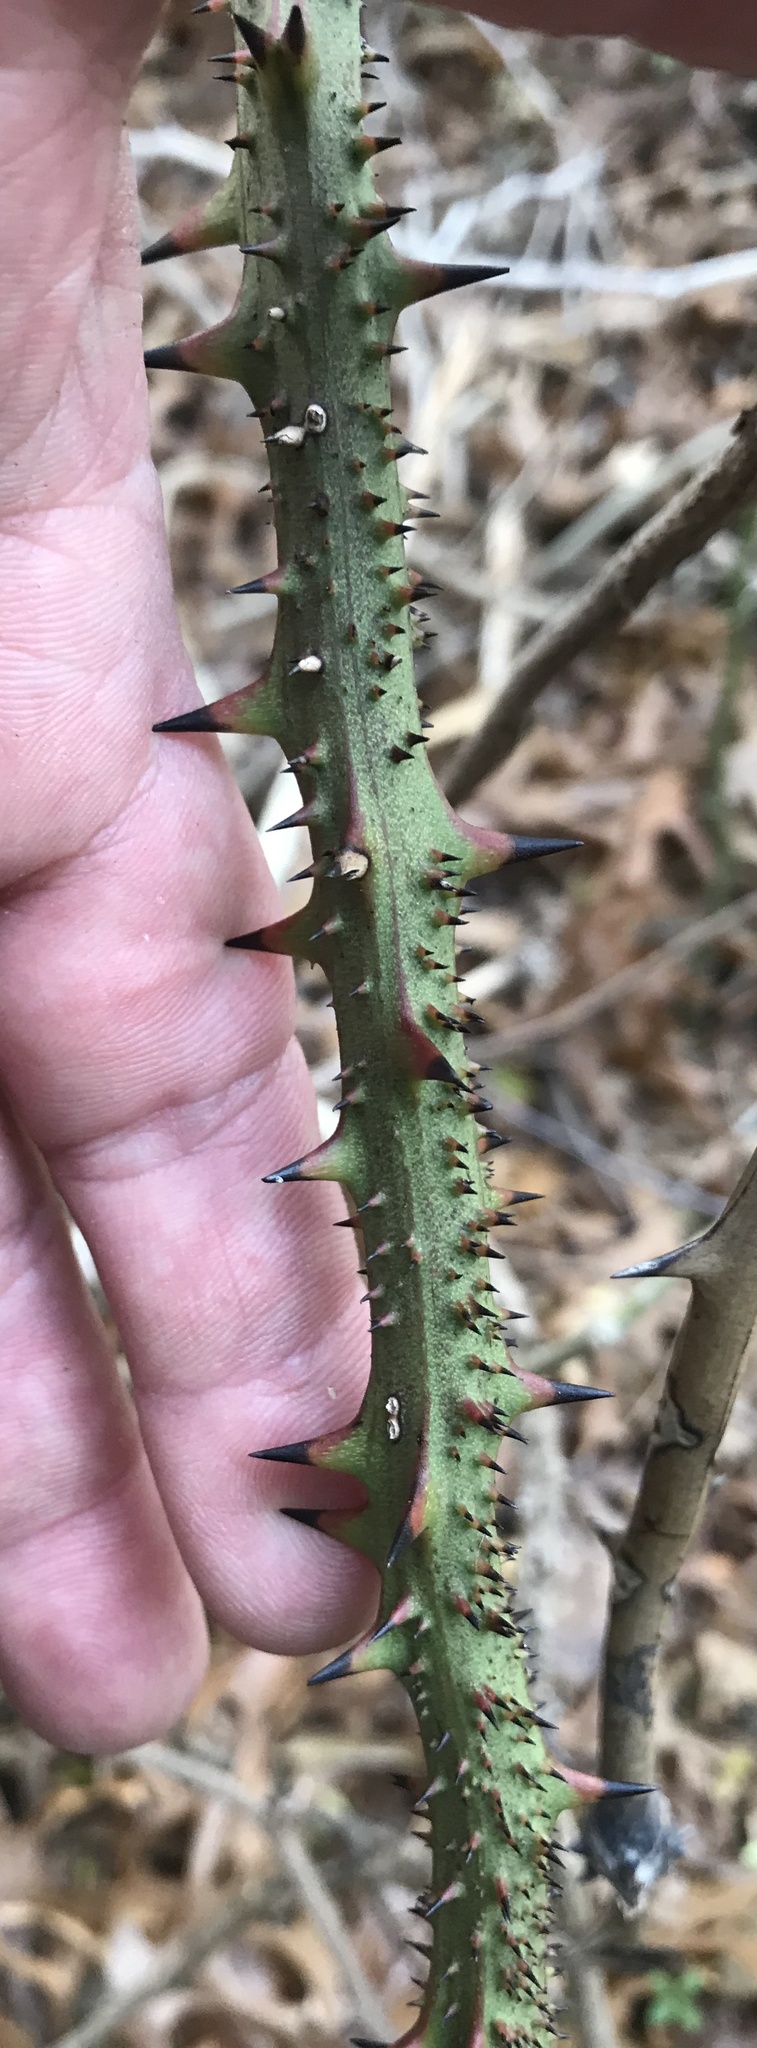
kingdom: Plantae
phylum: Tracheophyta
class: Liliopsida
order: Liliales
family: Smilacaceae
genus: Smilax
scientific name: Smilax bona-nox
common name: Catbrier
